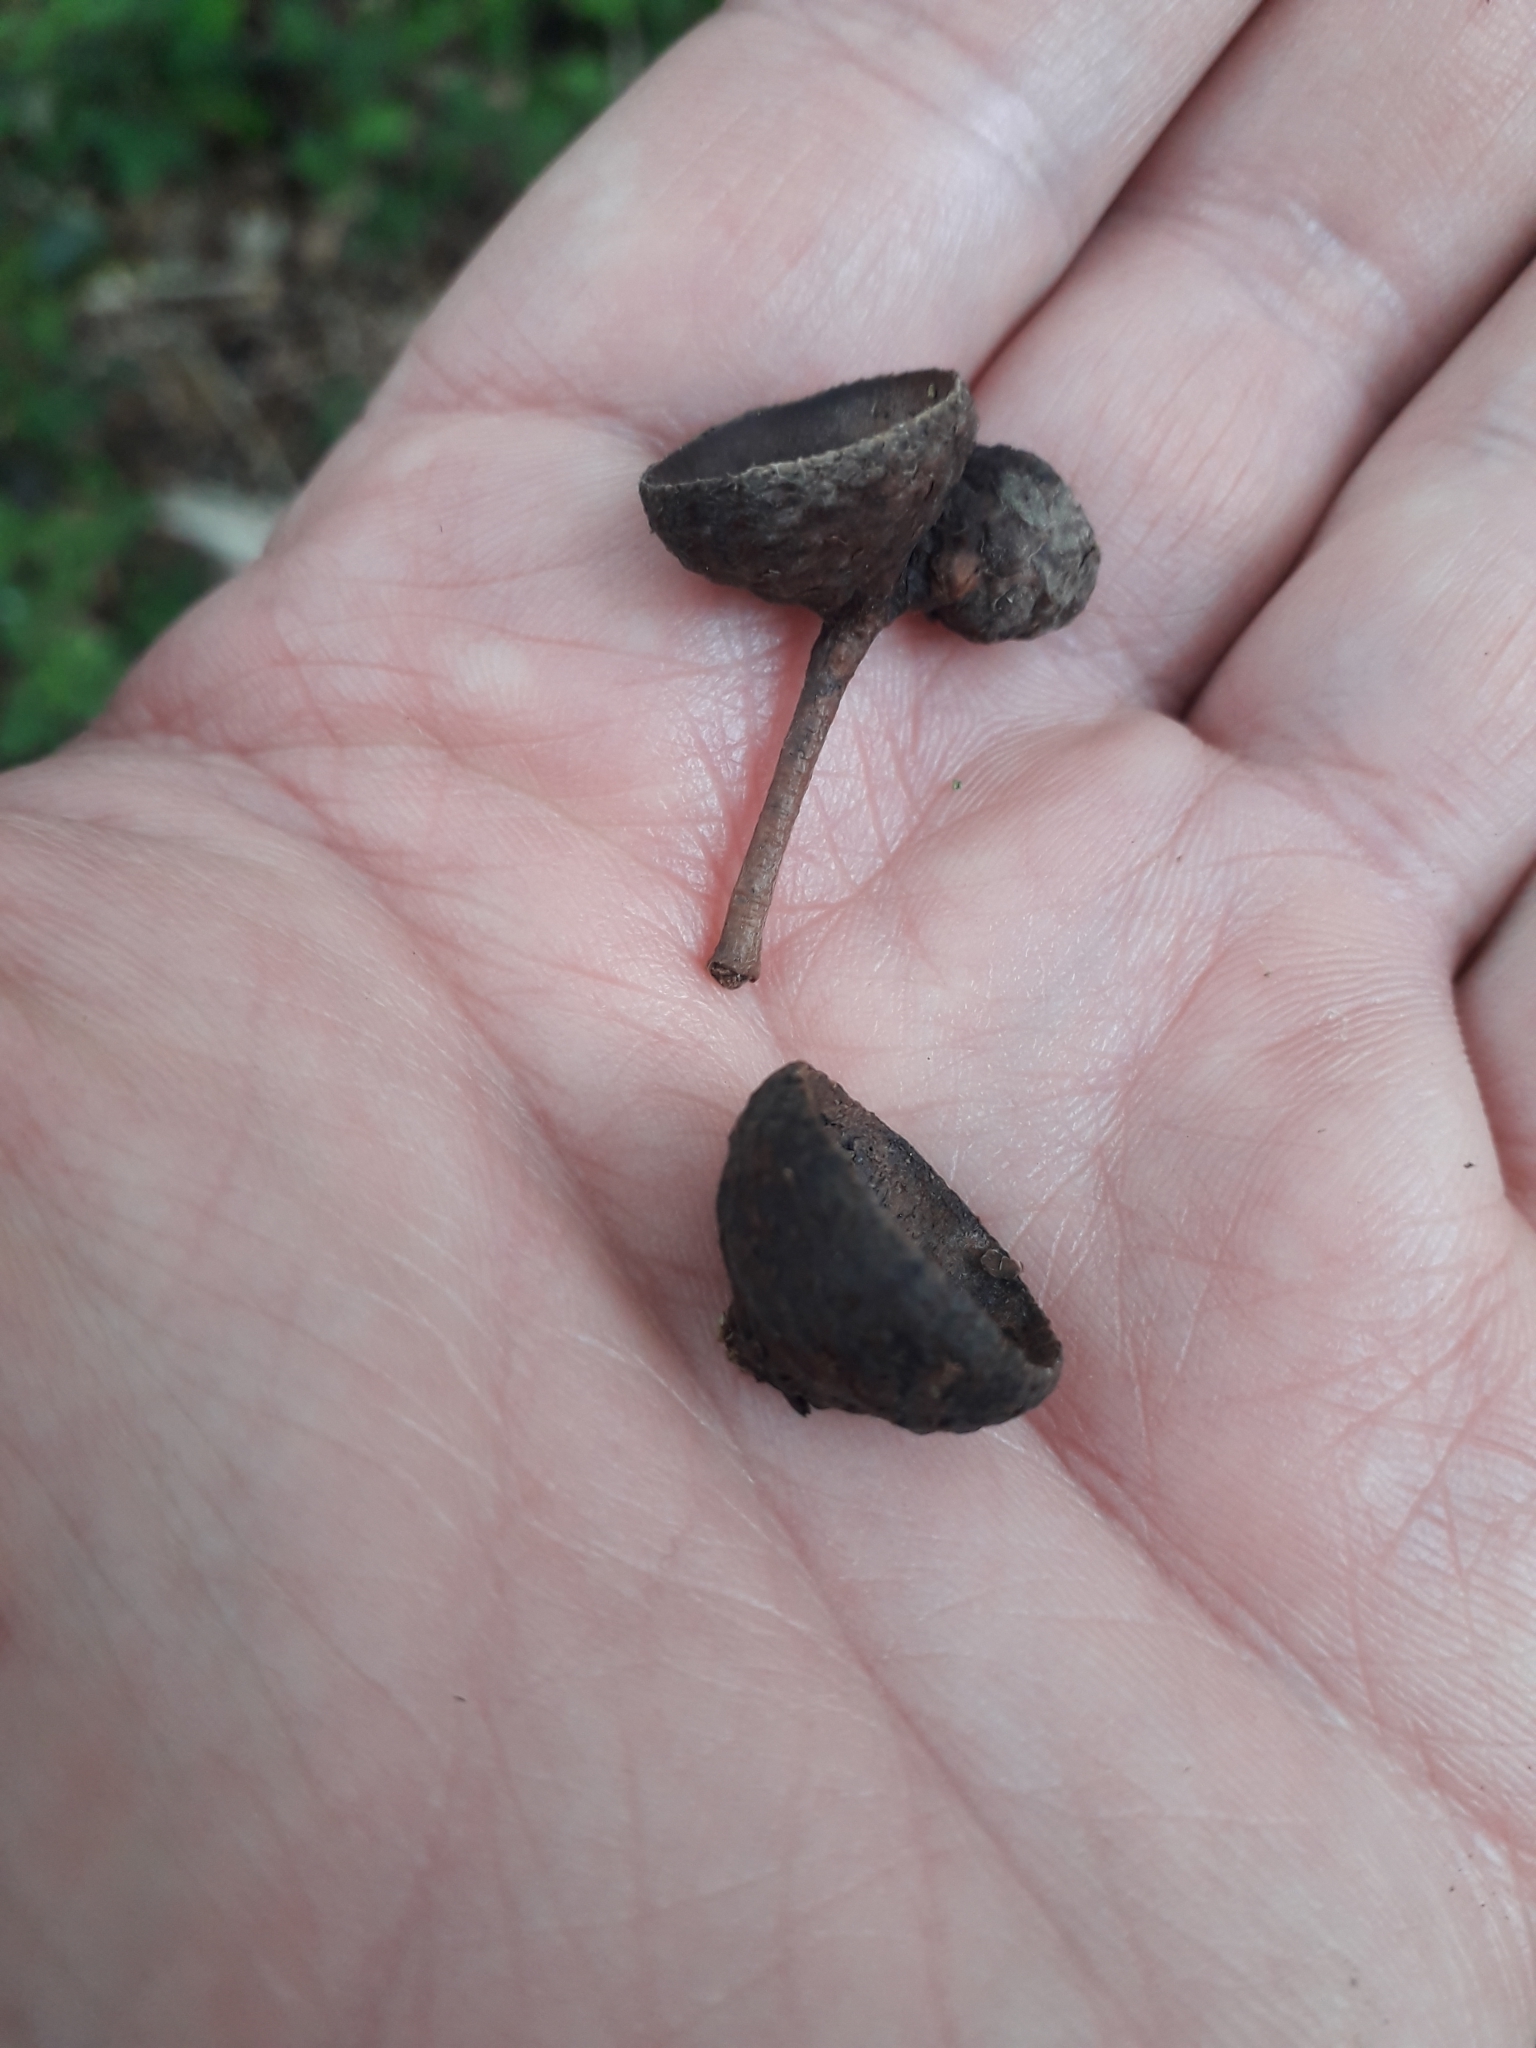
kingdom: Plantae
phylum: Tracheophyta
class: Magnoliopsida
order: Fagales
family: Fagaceae
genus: Quercus
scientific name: Quercus robur
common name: Pedunculate oak
